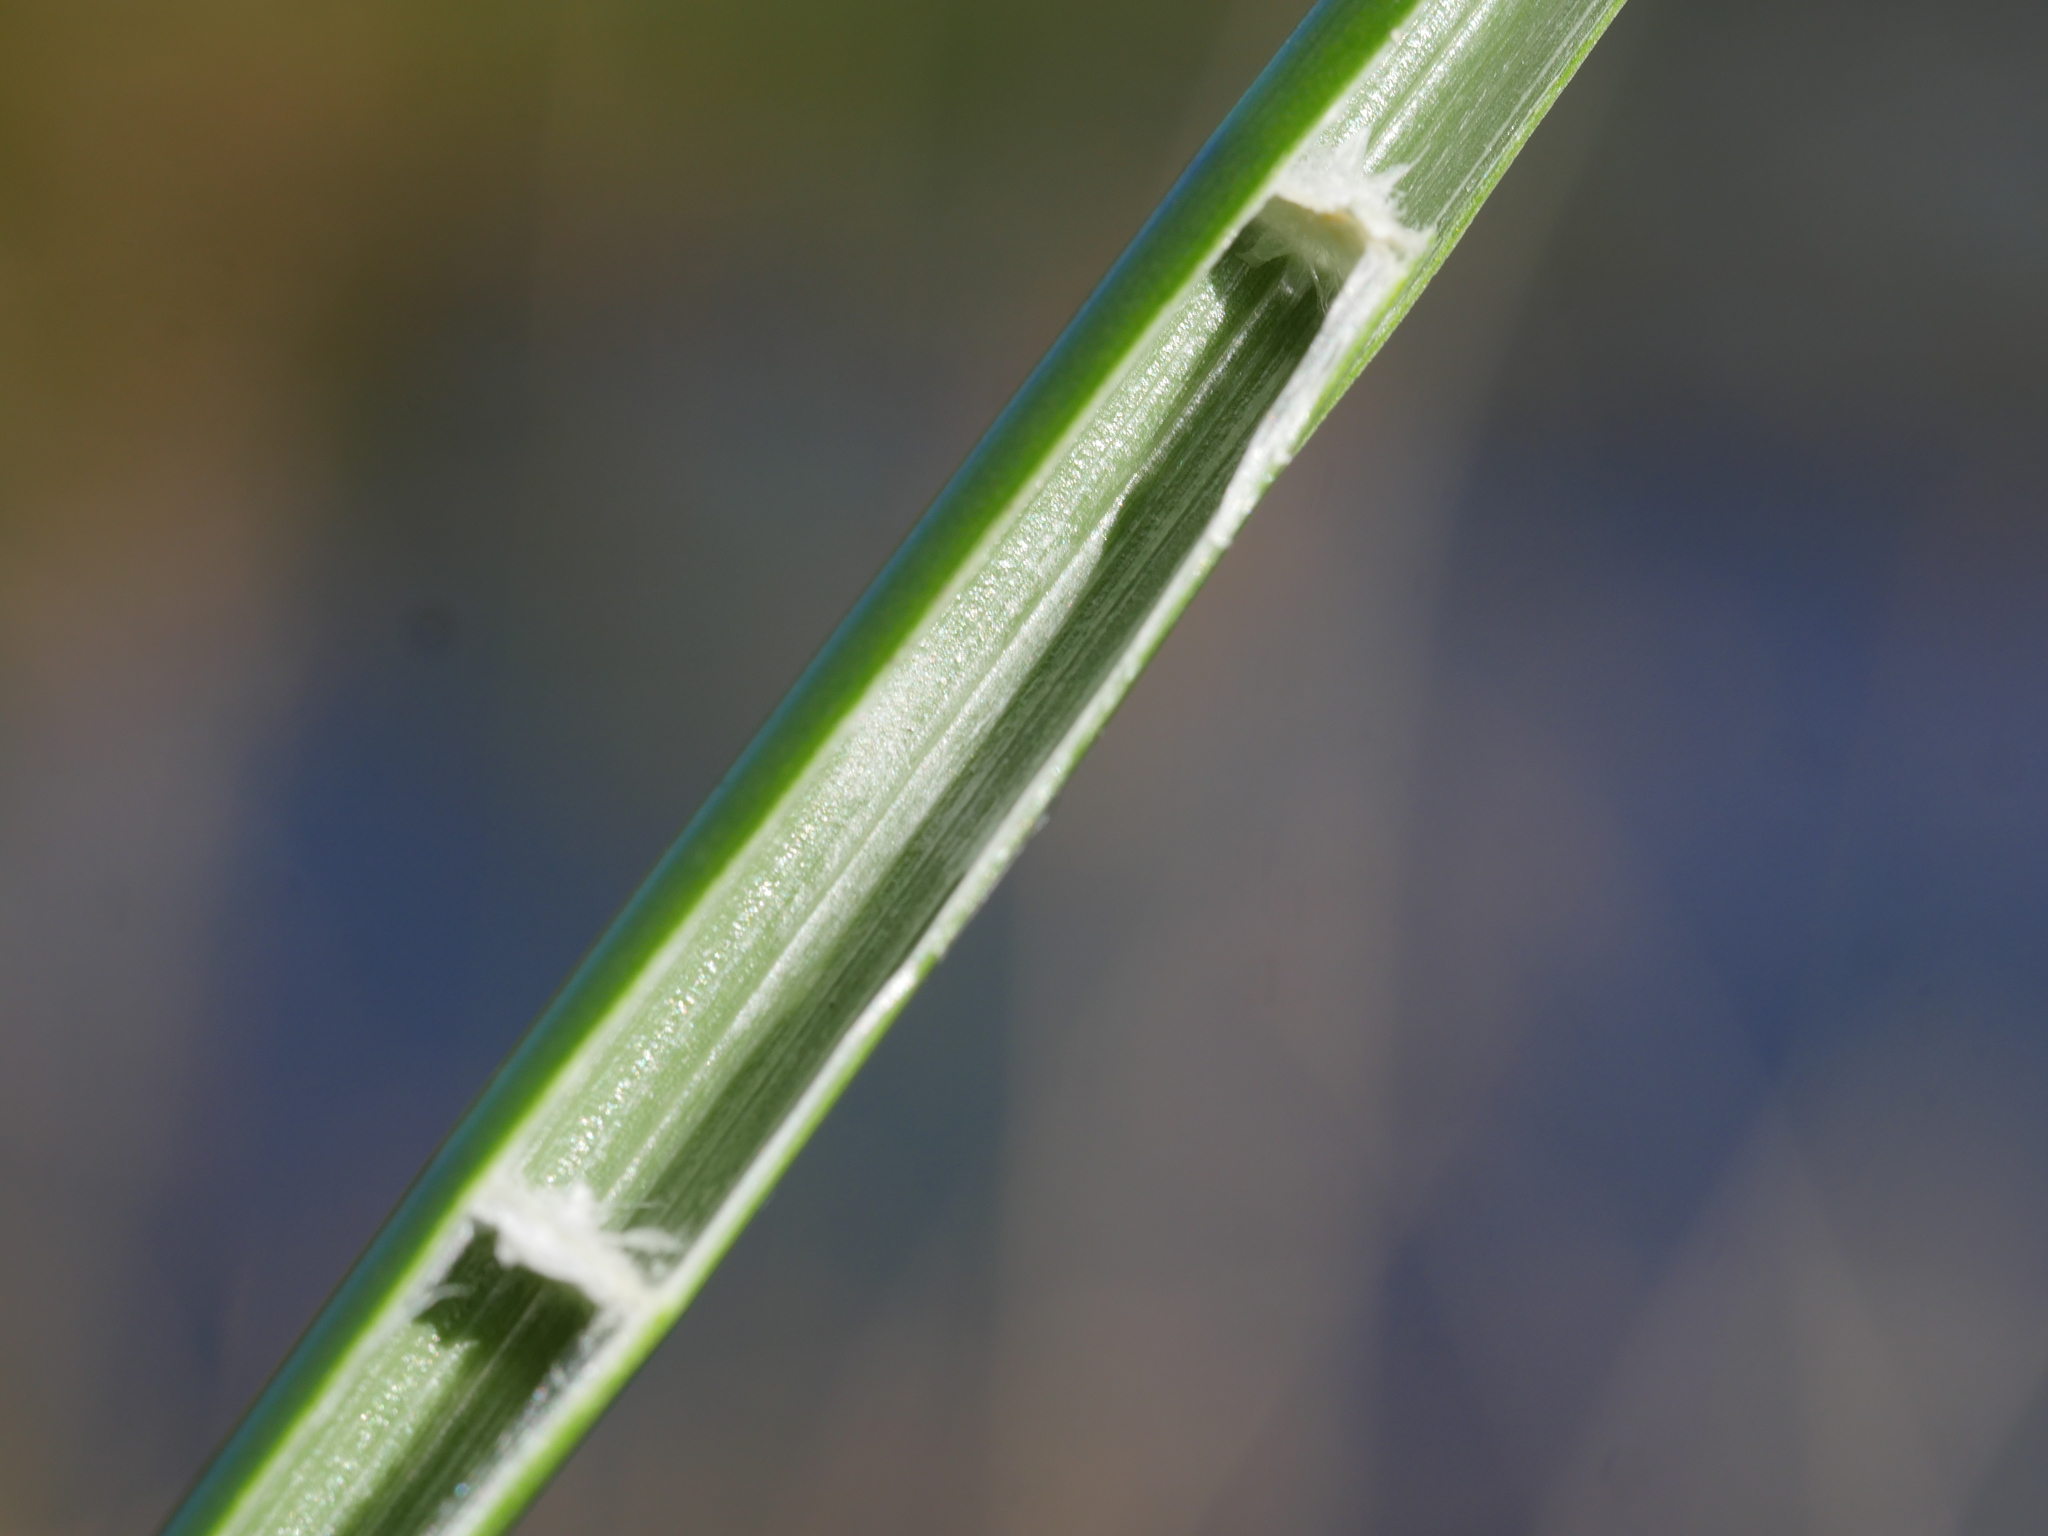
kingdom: Plantae
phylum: Tracheophyta
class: Liliopsida
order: Poales
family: Cyperaceae
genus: Machaerina
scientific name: Machaerina articulata
